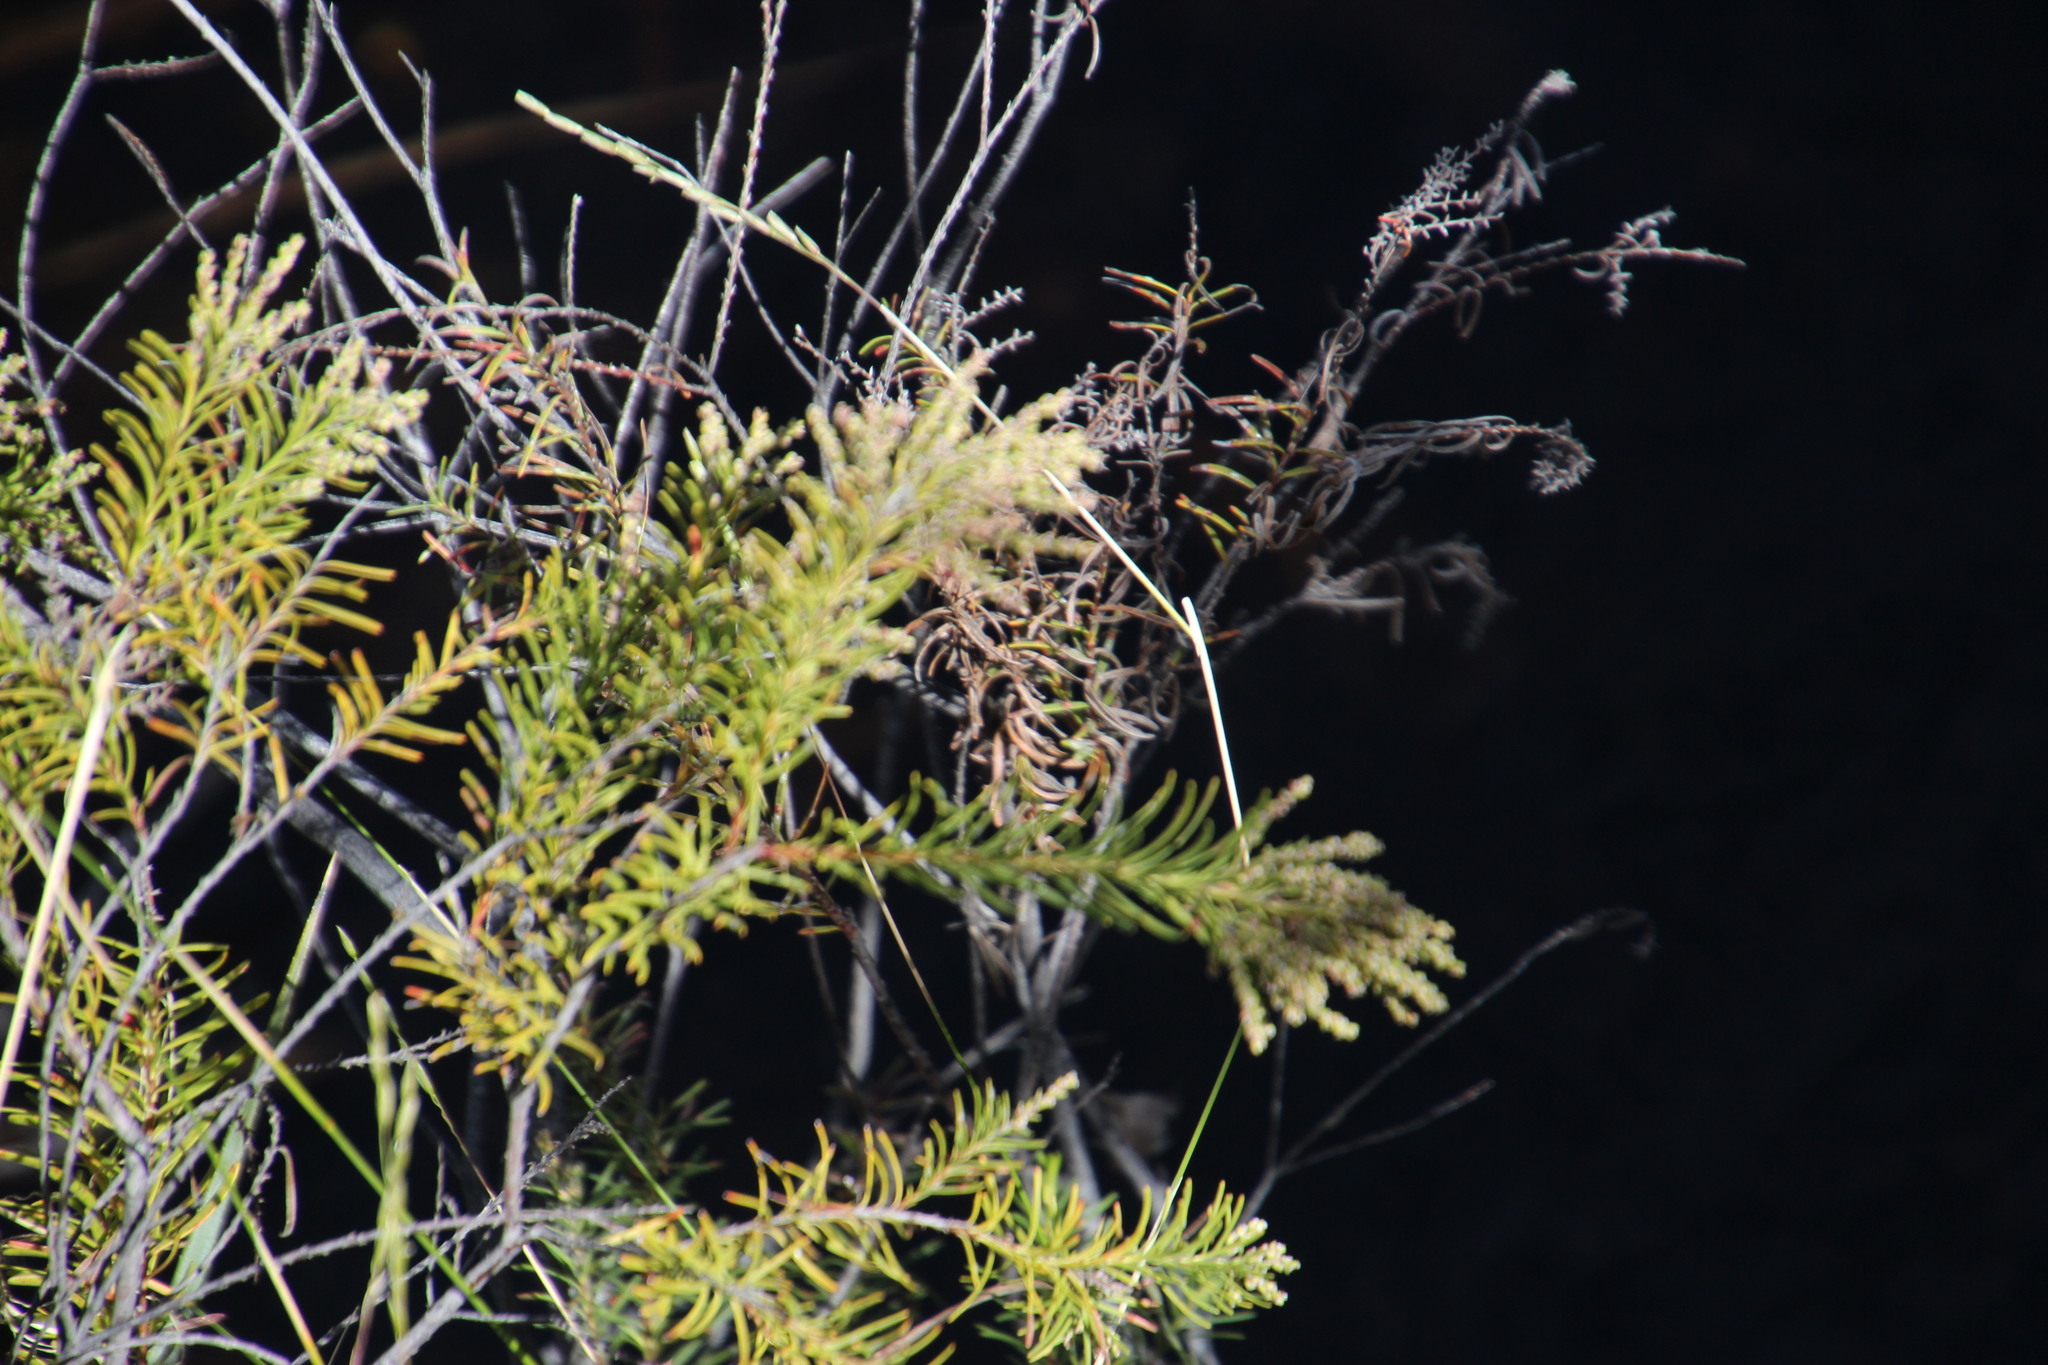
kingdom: Plantae
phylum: Tracheophyta
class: Magnoliopsida
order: Bruniales
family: Bruniaceae
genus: Brunia
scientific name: Brunia africana
